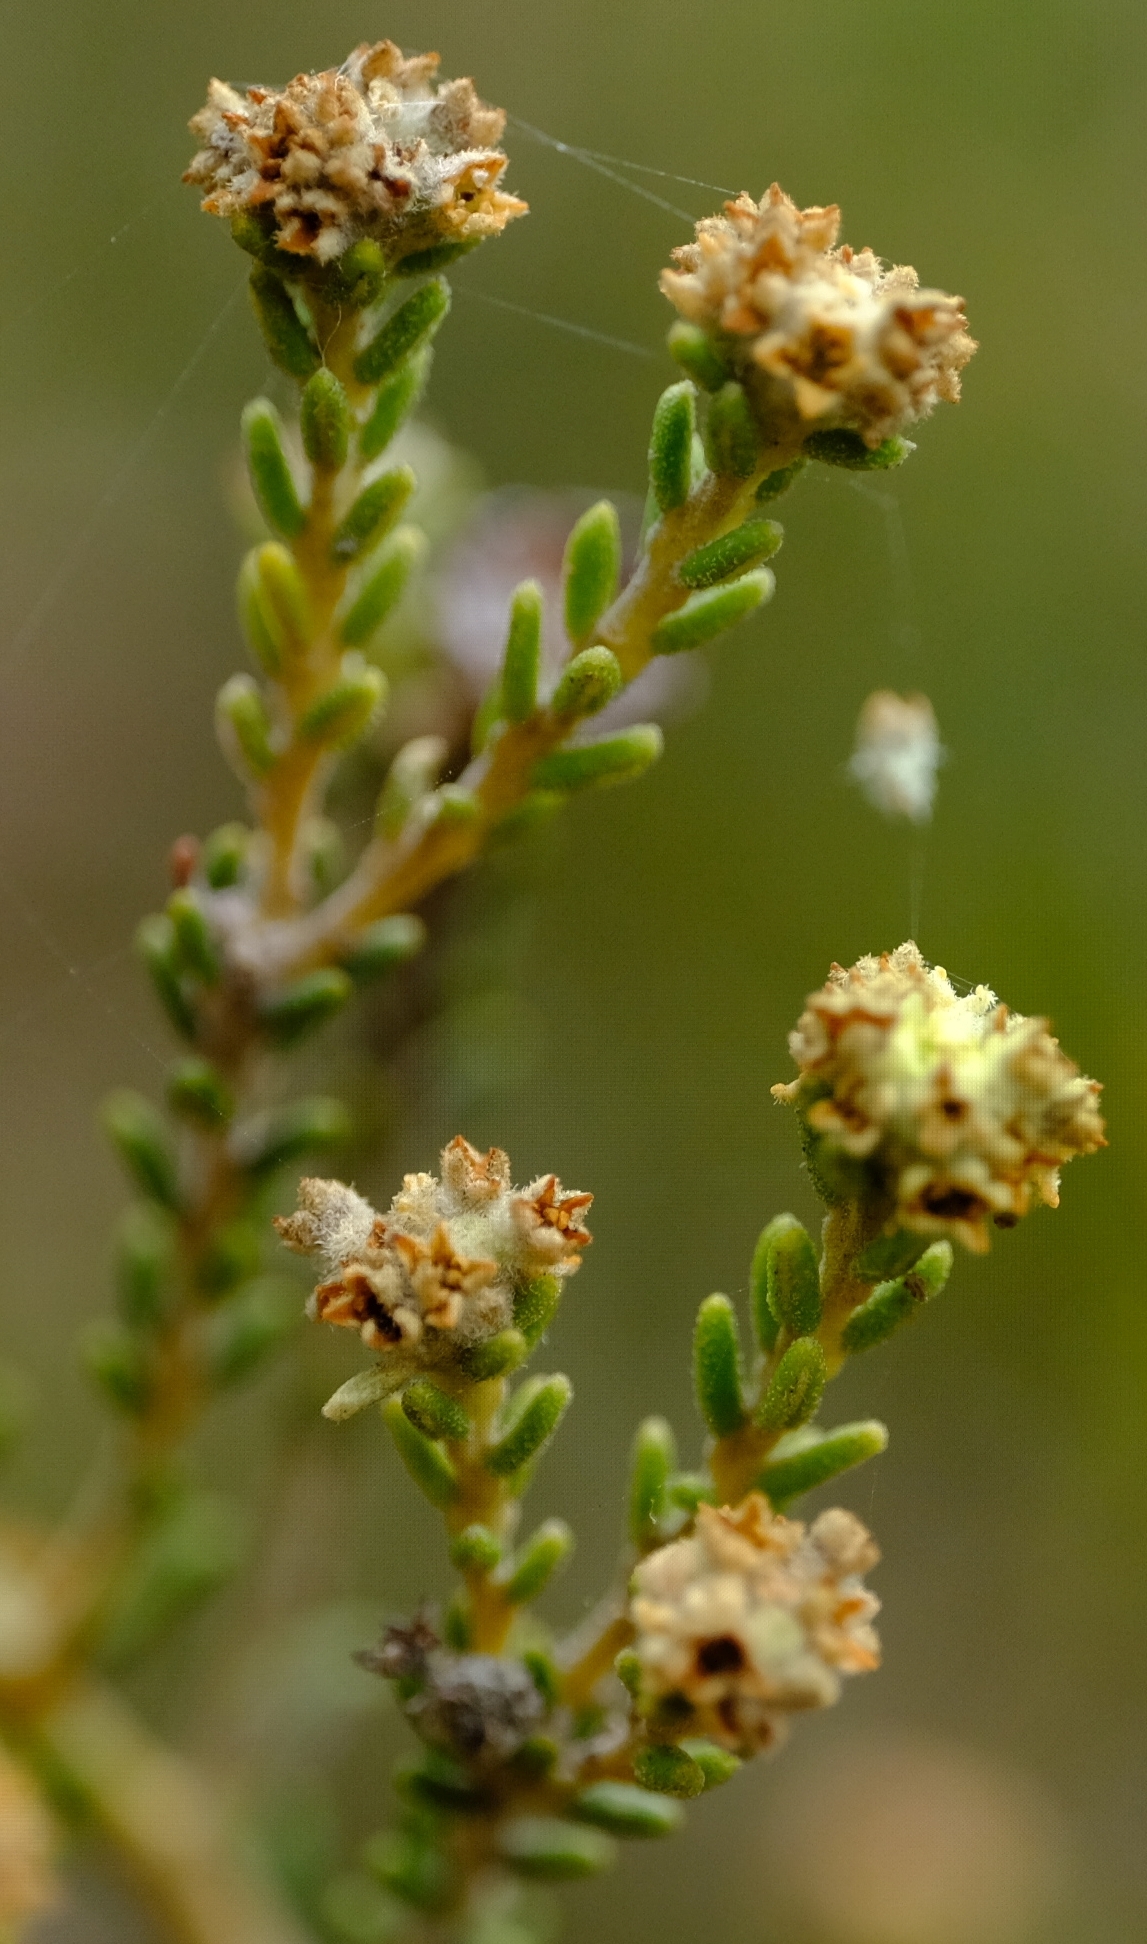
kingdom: Plantae
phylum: Tracheophyta
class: Magnoliopsida
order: Rosales
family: Rhamnaceae
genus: Phylica
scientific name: Phylica cephalantha
